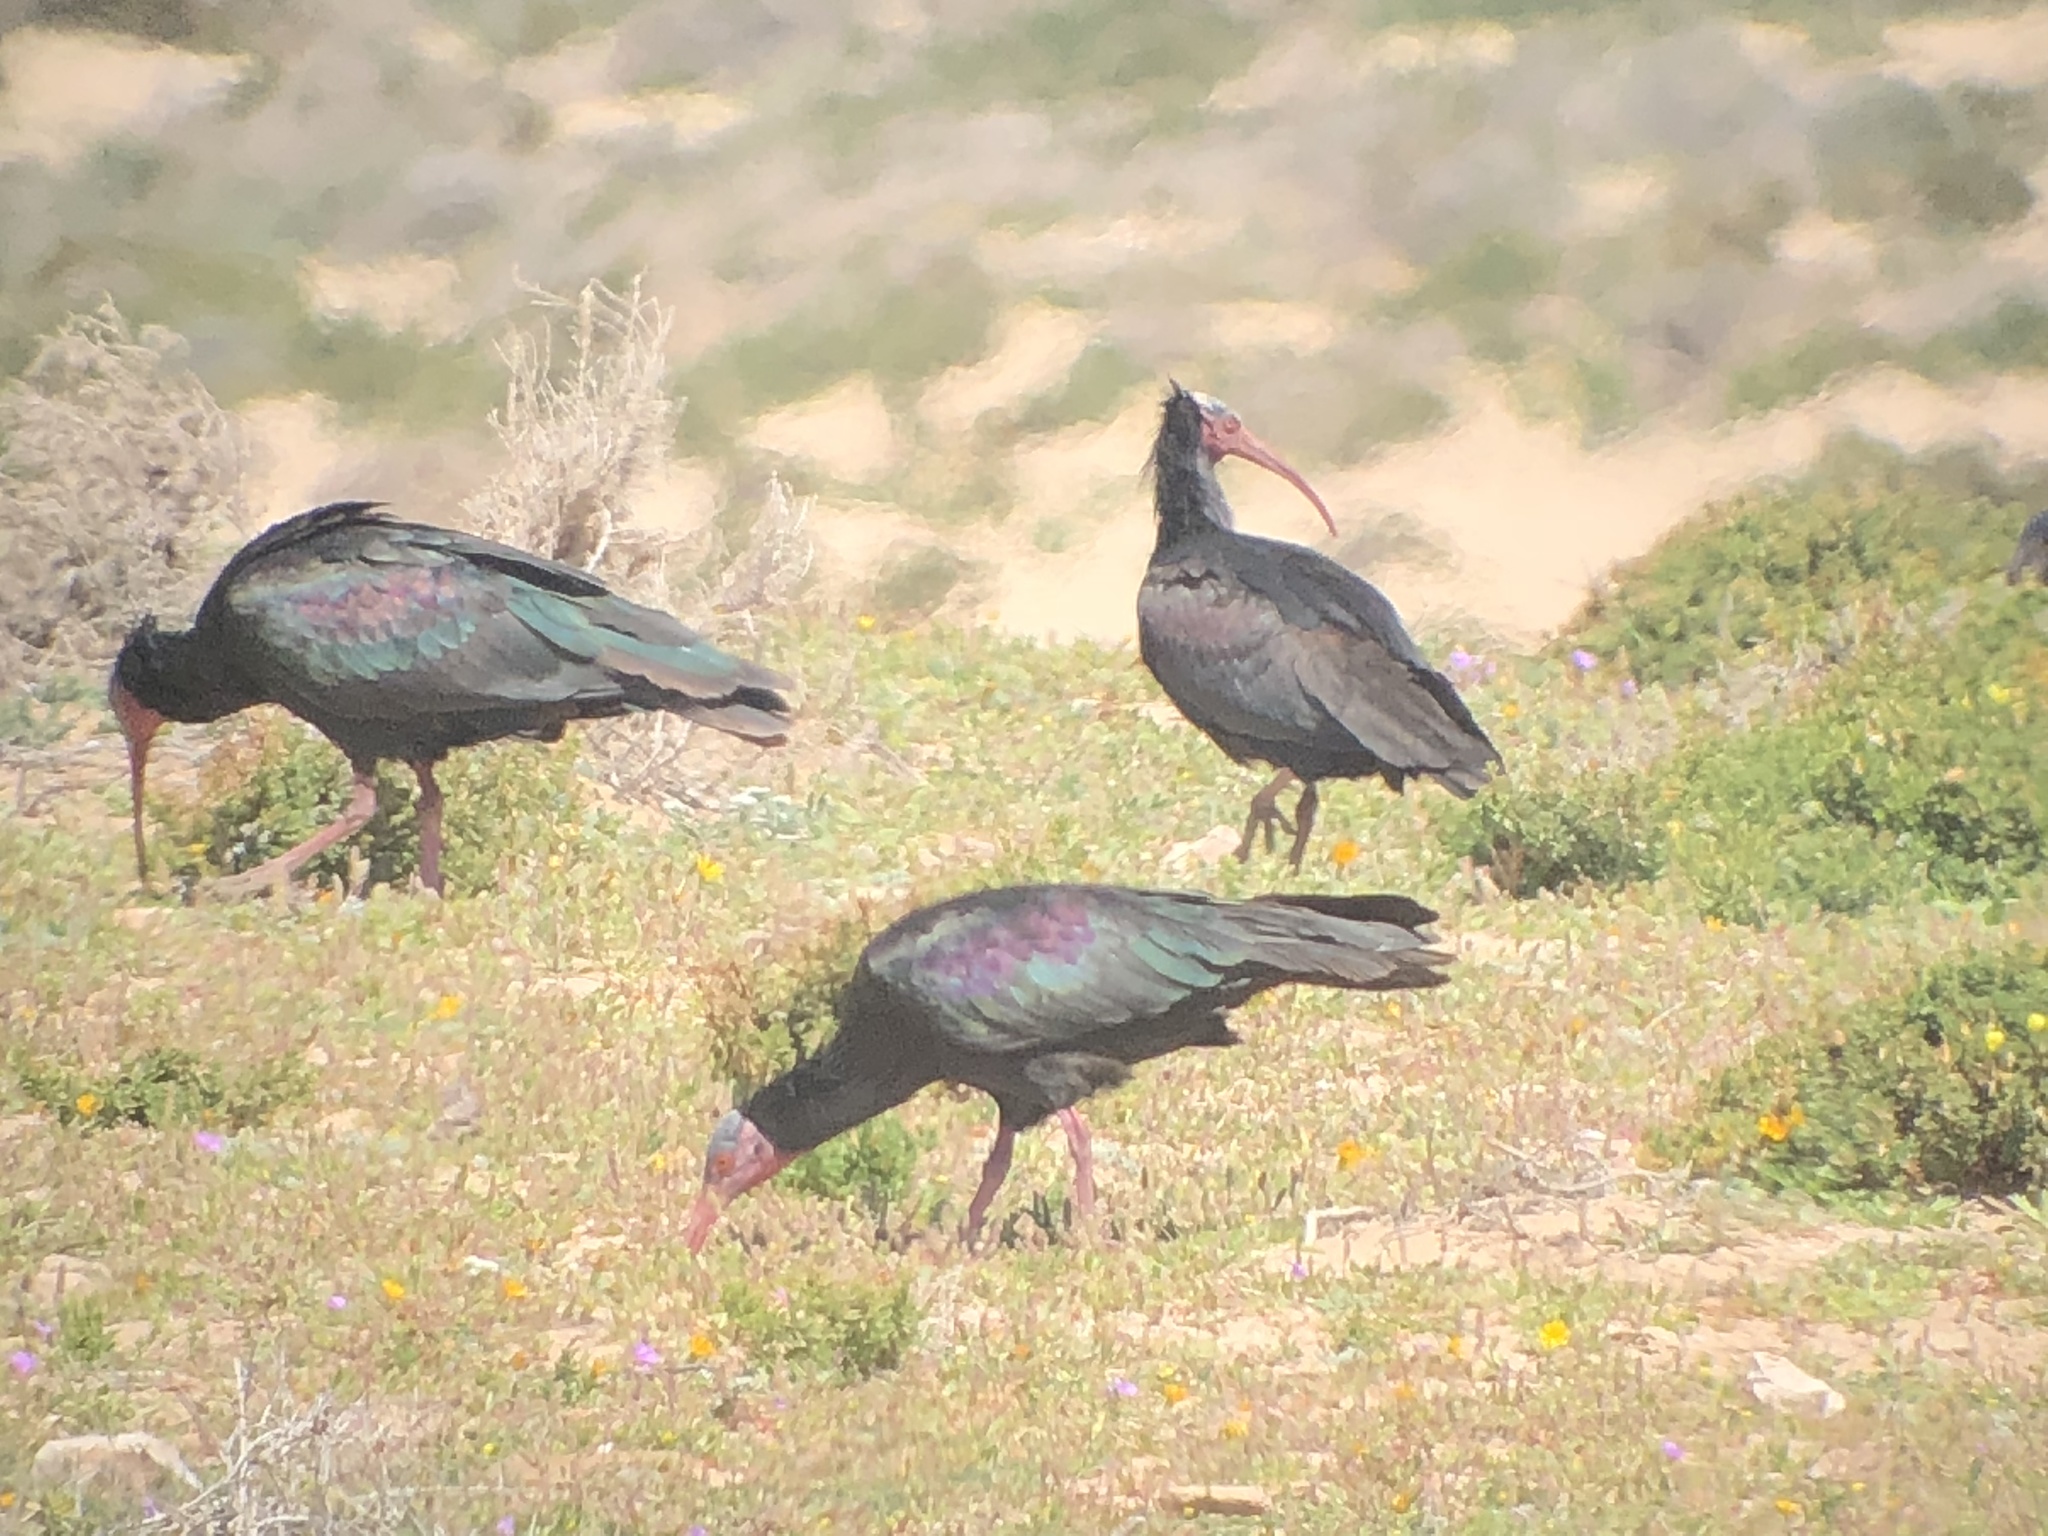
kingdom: Animalia
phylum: Chordata
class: Aves
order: Pelecaniformes
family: Threskiornithidae
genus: Geronticus
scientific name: Geronticus eremita
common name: Northern bald ibis
